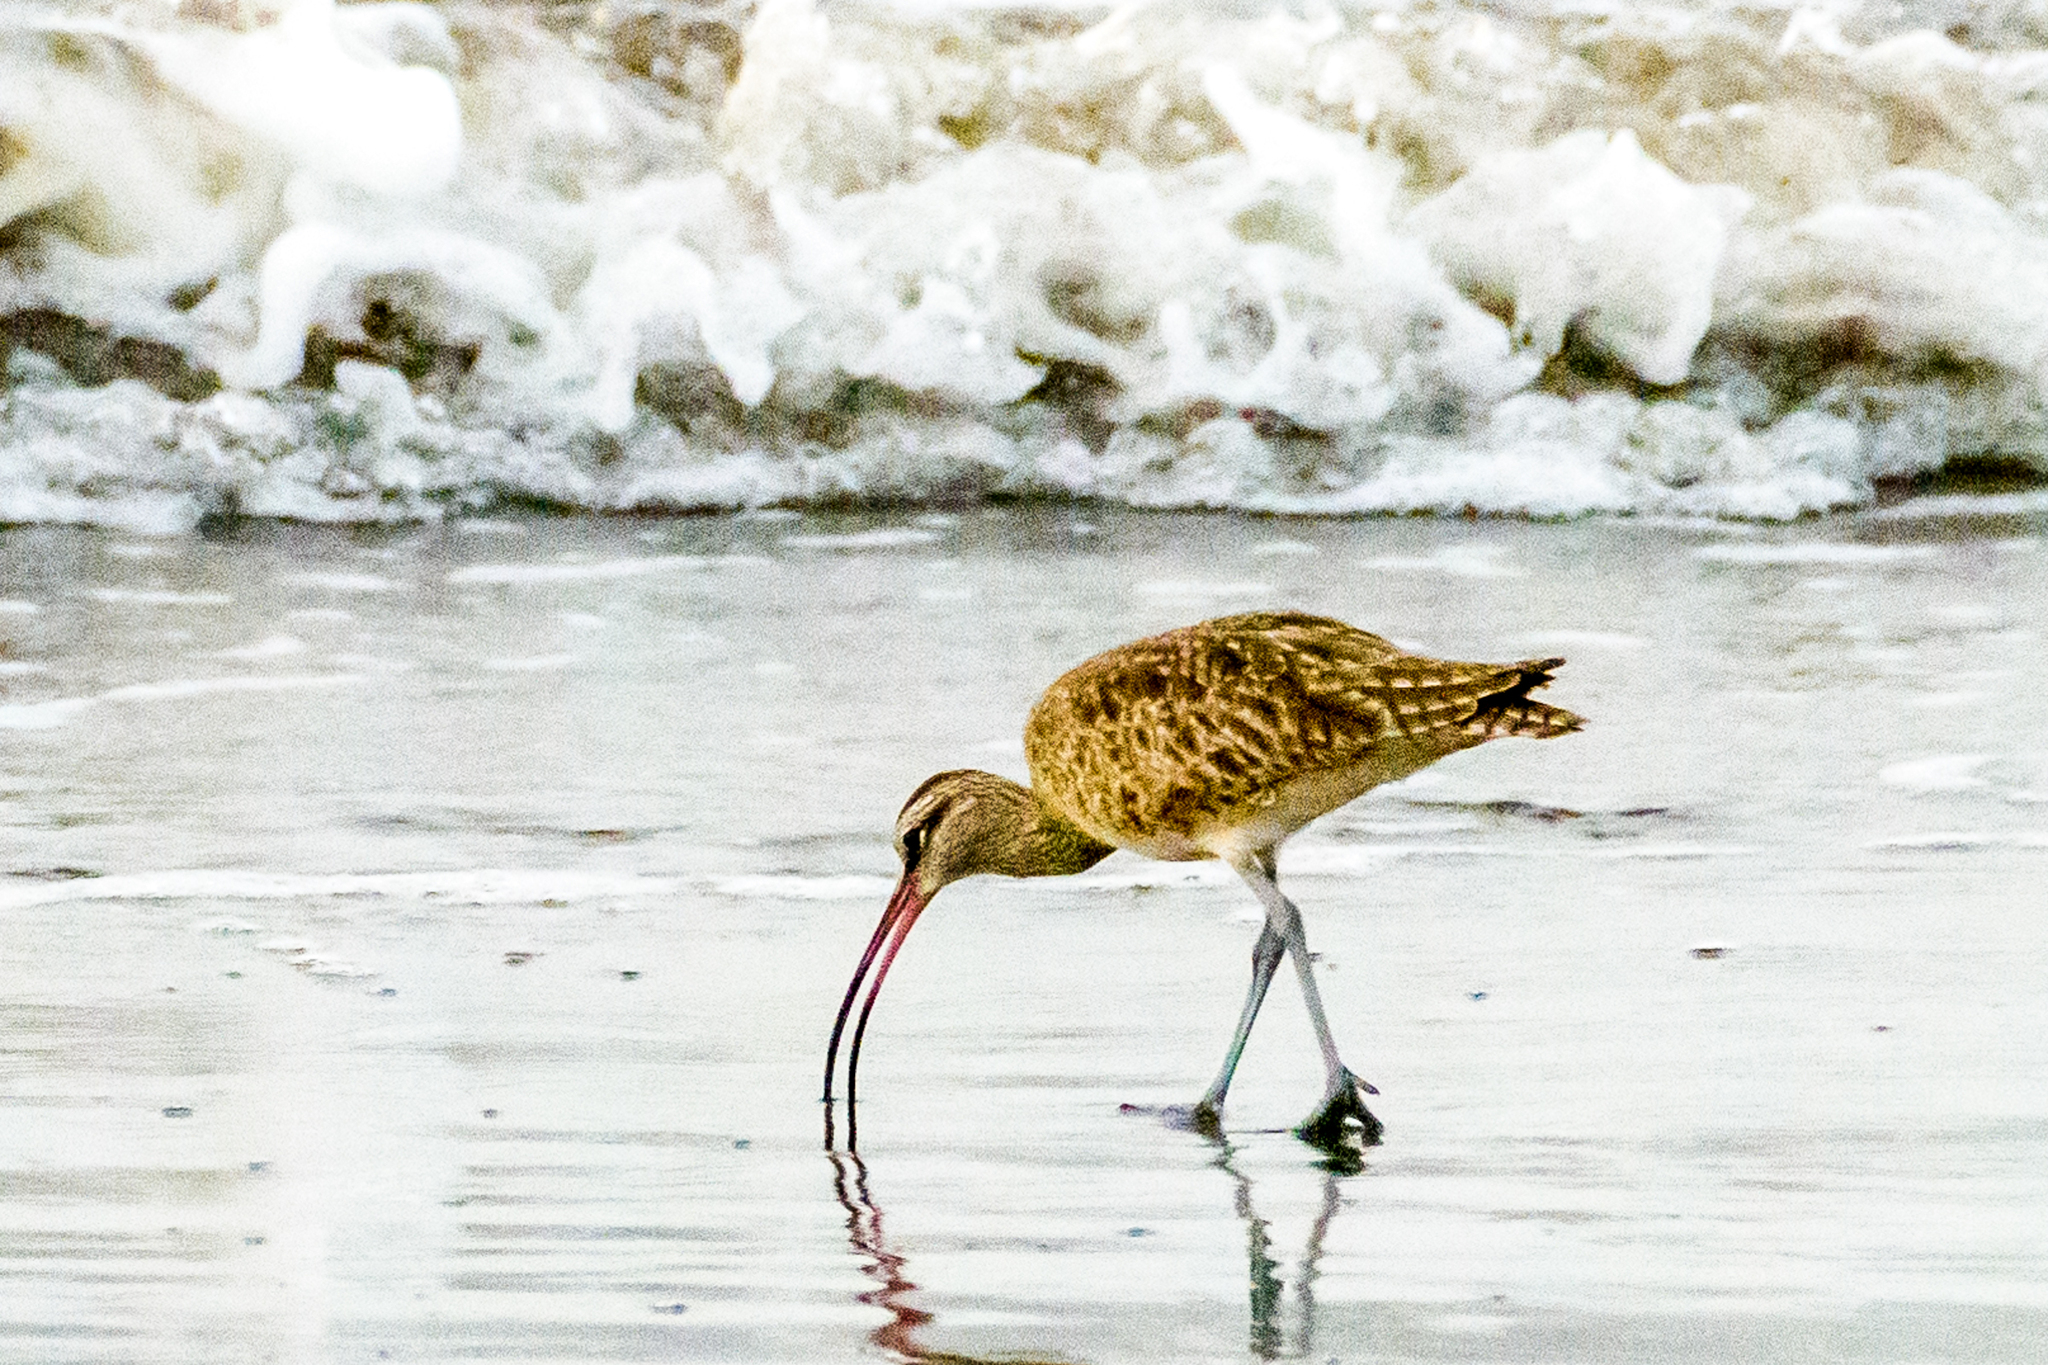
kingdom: Animalia
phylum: Chordata
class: Aves
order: Charadriiformes
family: Scolopacidae
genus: Numenius
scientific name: Numenius phaeopus
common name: Whimbrel
